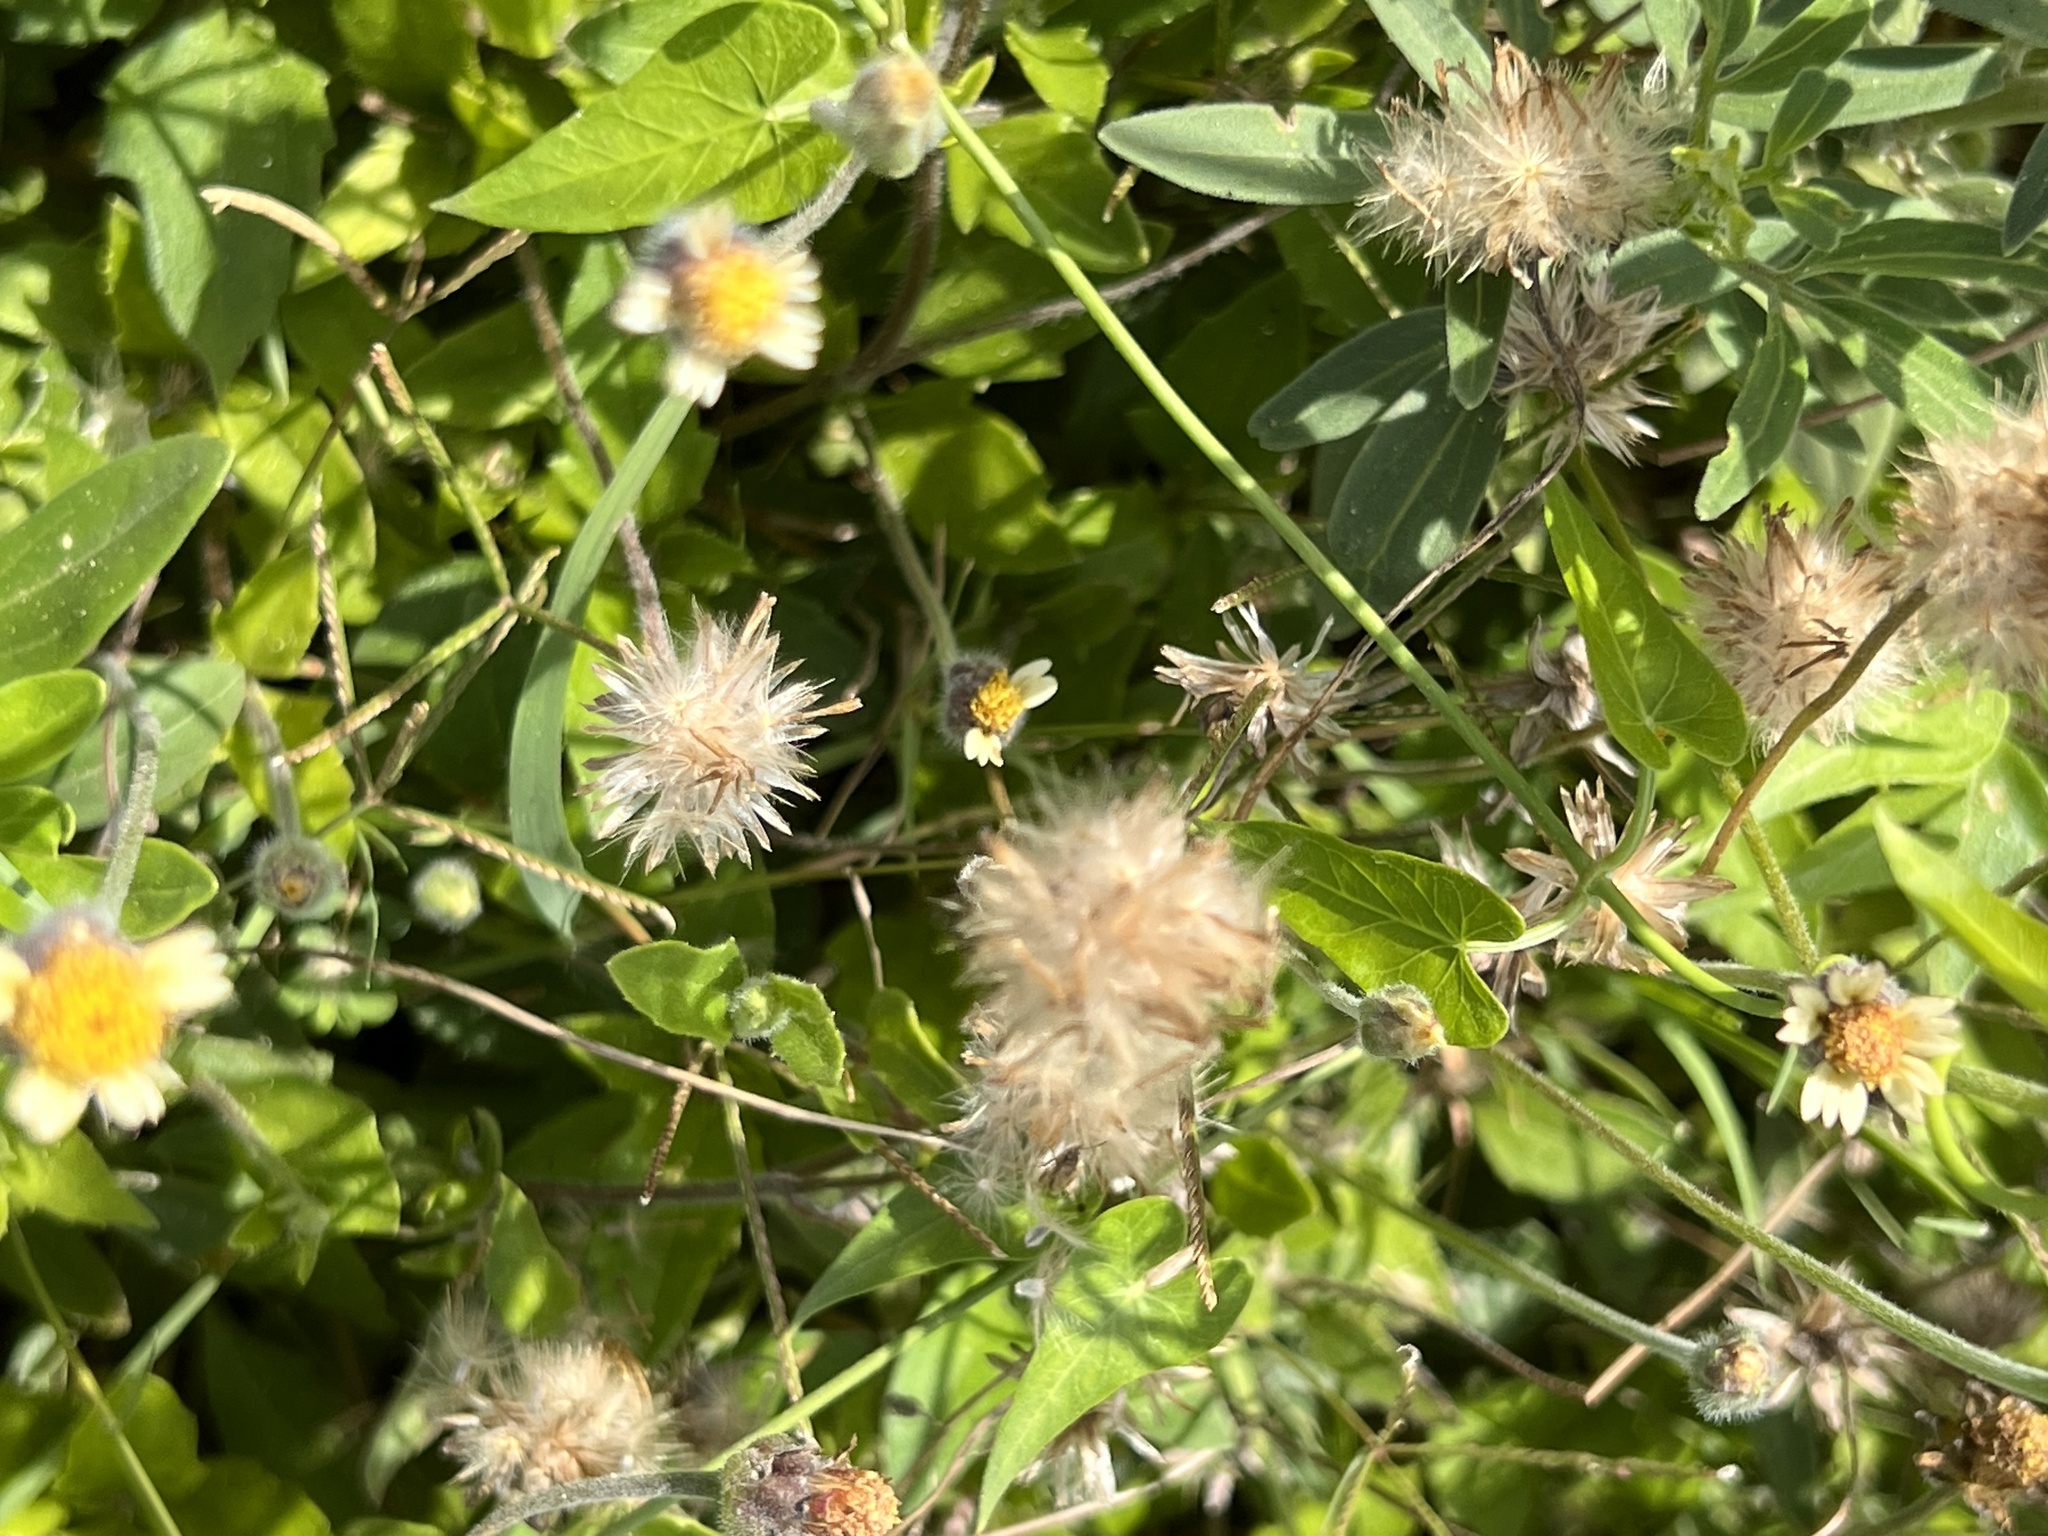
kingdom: Plantae
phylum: Tracheophyta
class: Magnoliopsida
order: Asterales
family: Asteraceae
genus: Tridax
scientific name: Tridax procumbens
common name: Coatbuttons
